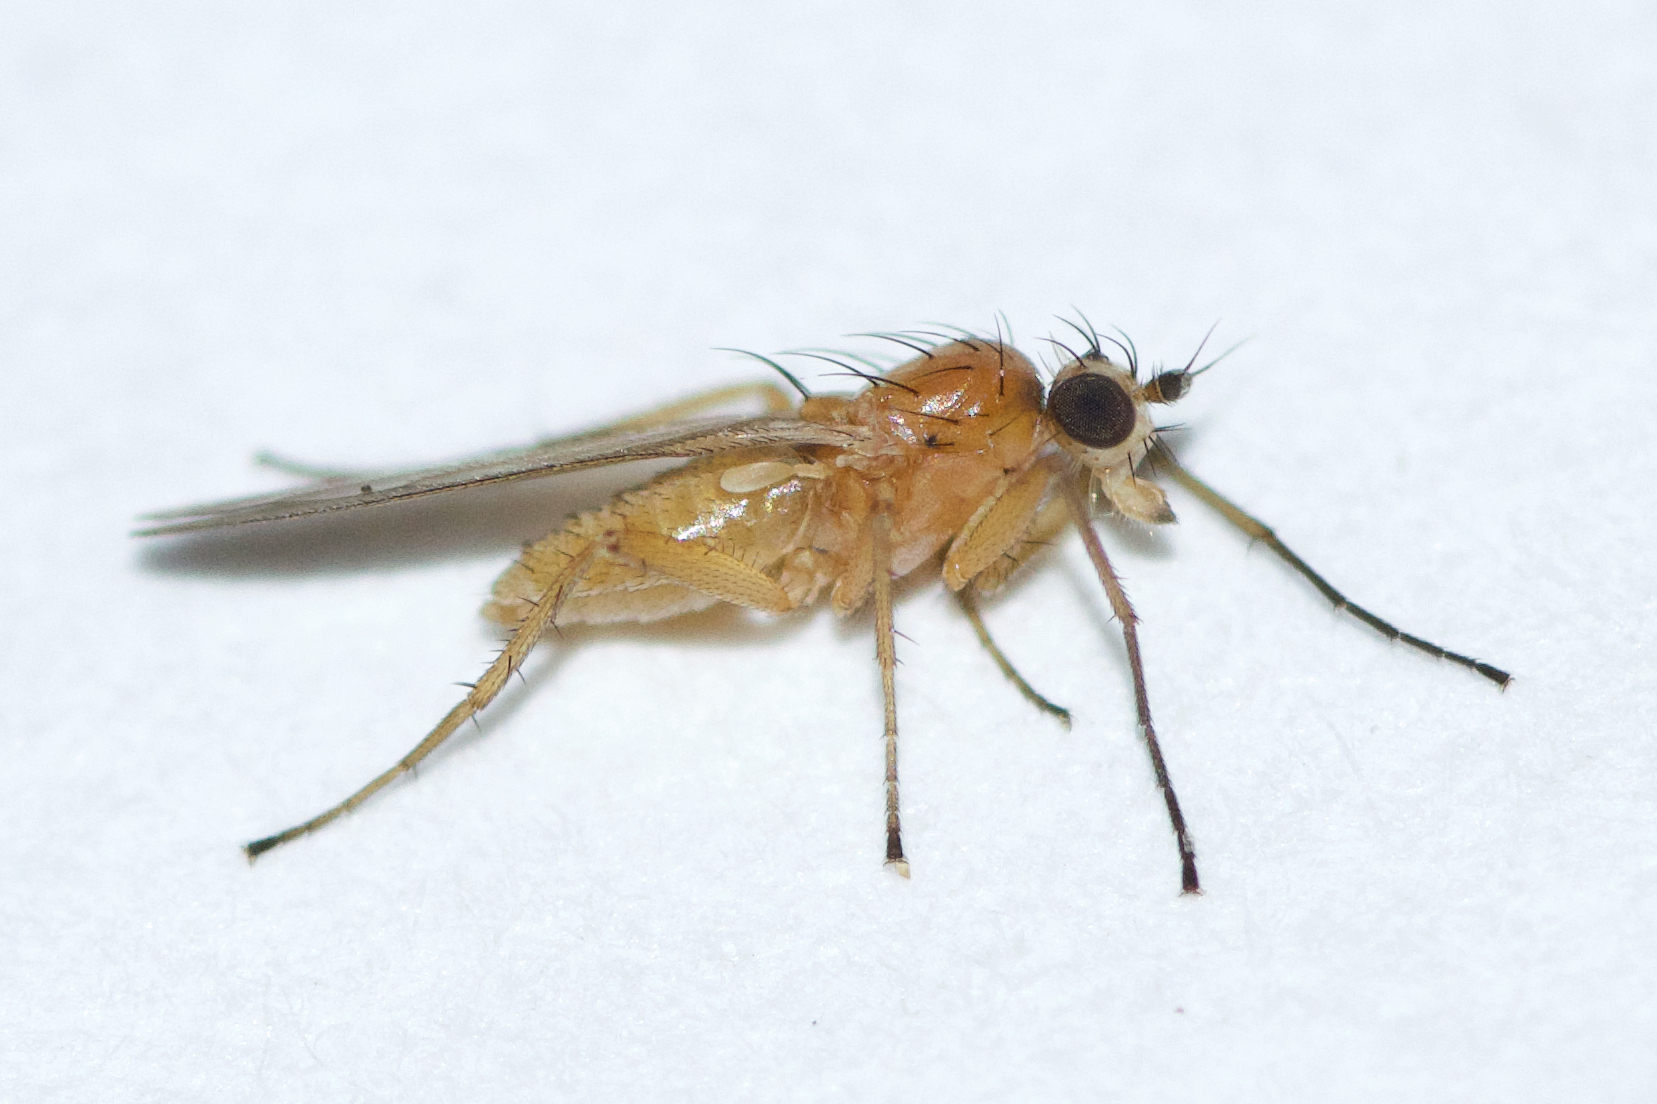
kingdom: Animalia
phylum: Arthropoda
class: Insecta
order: Diptera
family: Lonchopteridae
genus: Lonchoptera
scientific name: Lonchoptera bifurcata
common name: Spear-winged fly
